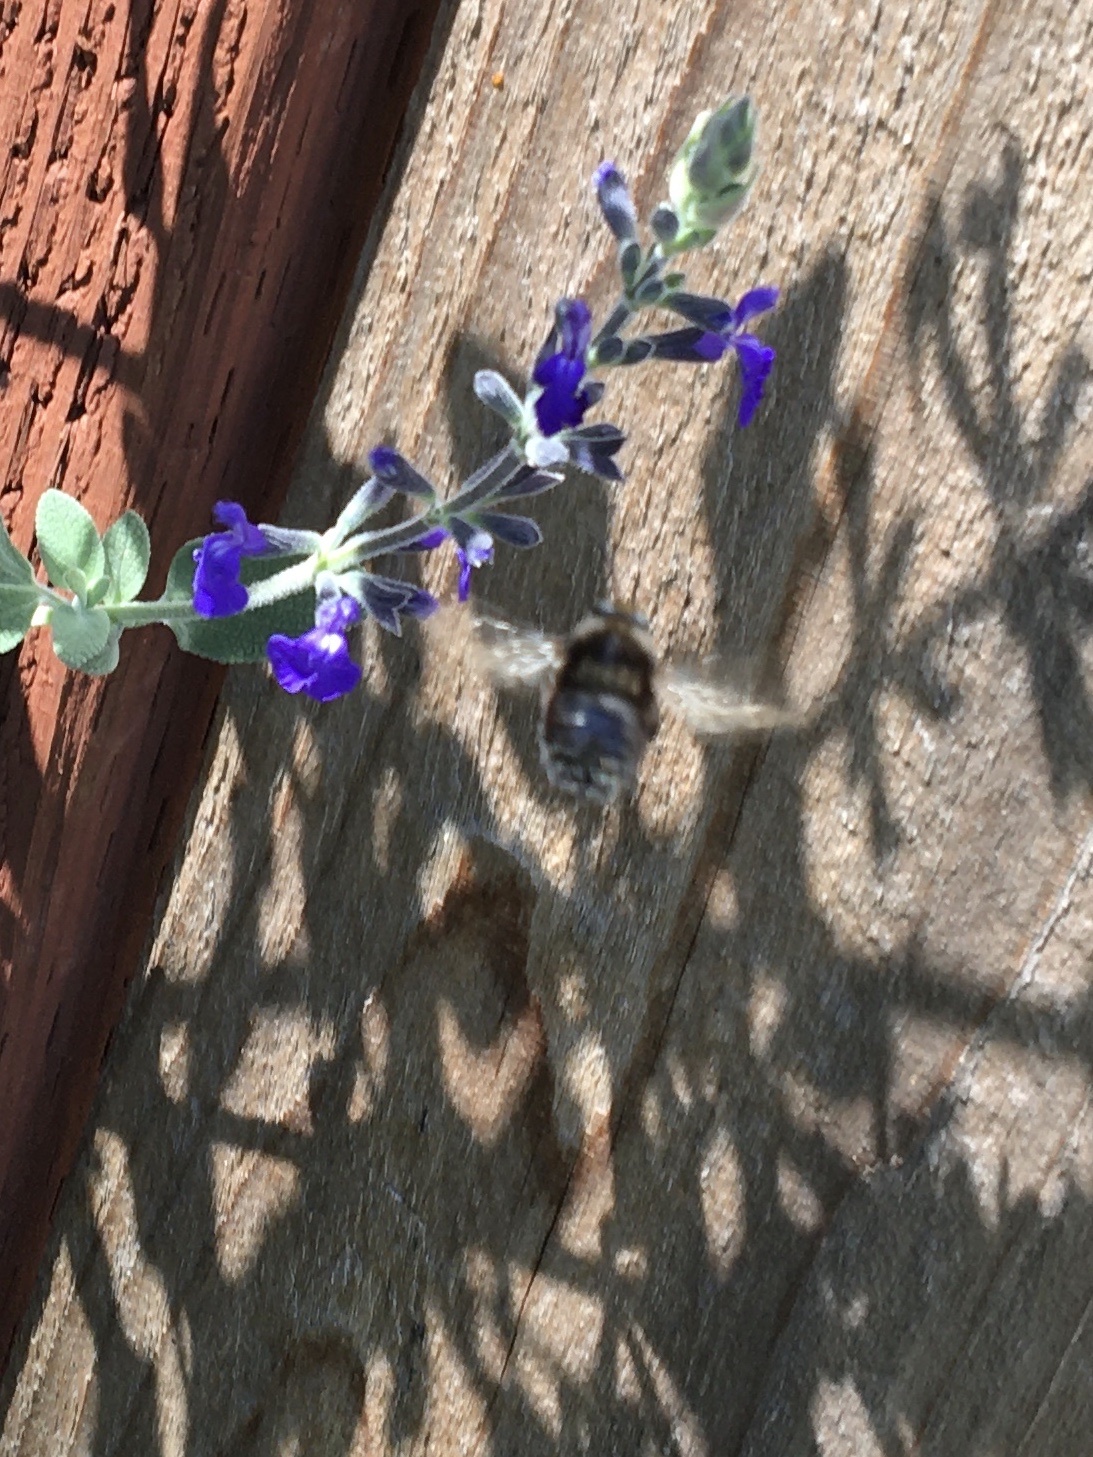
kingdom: Animalia
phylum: Arthropoda
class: Insecta
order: Hymenoptera
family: Apidae
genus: Xylocopa
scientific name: Xylocopa tabaniformis
